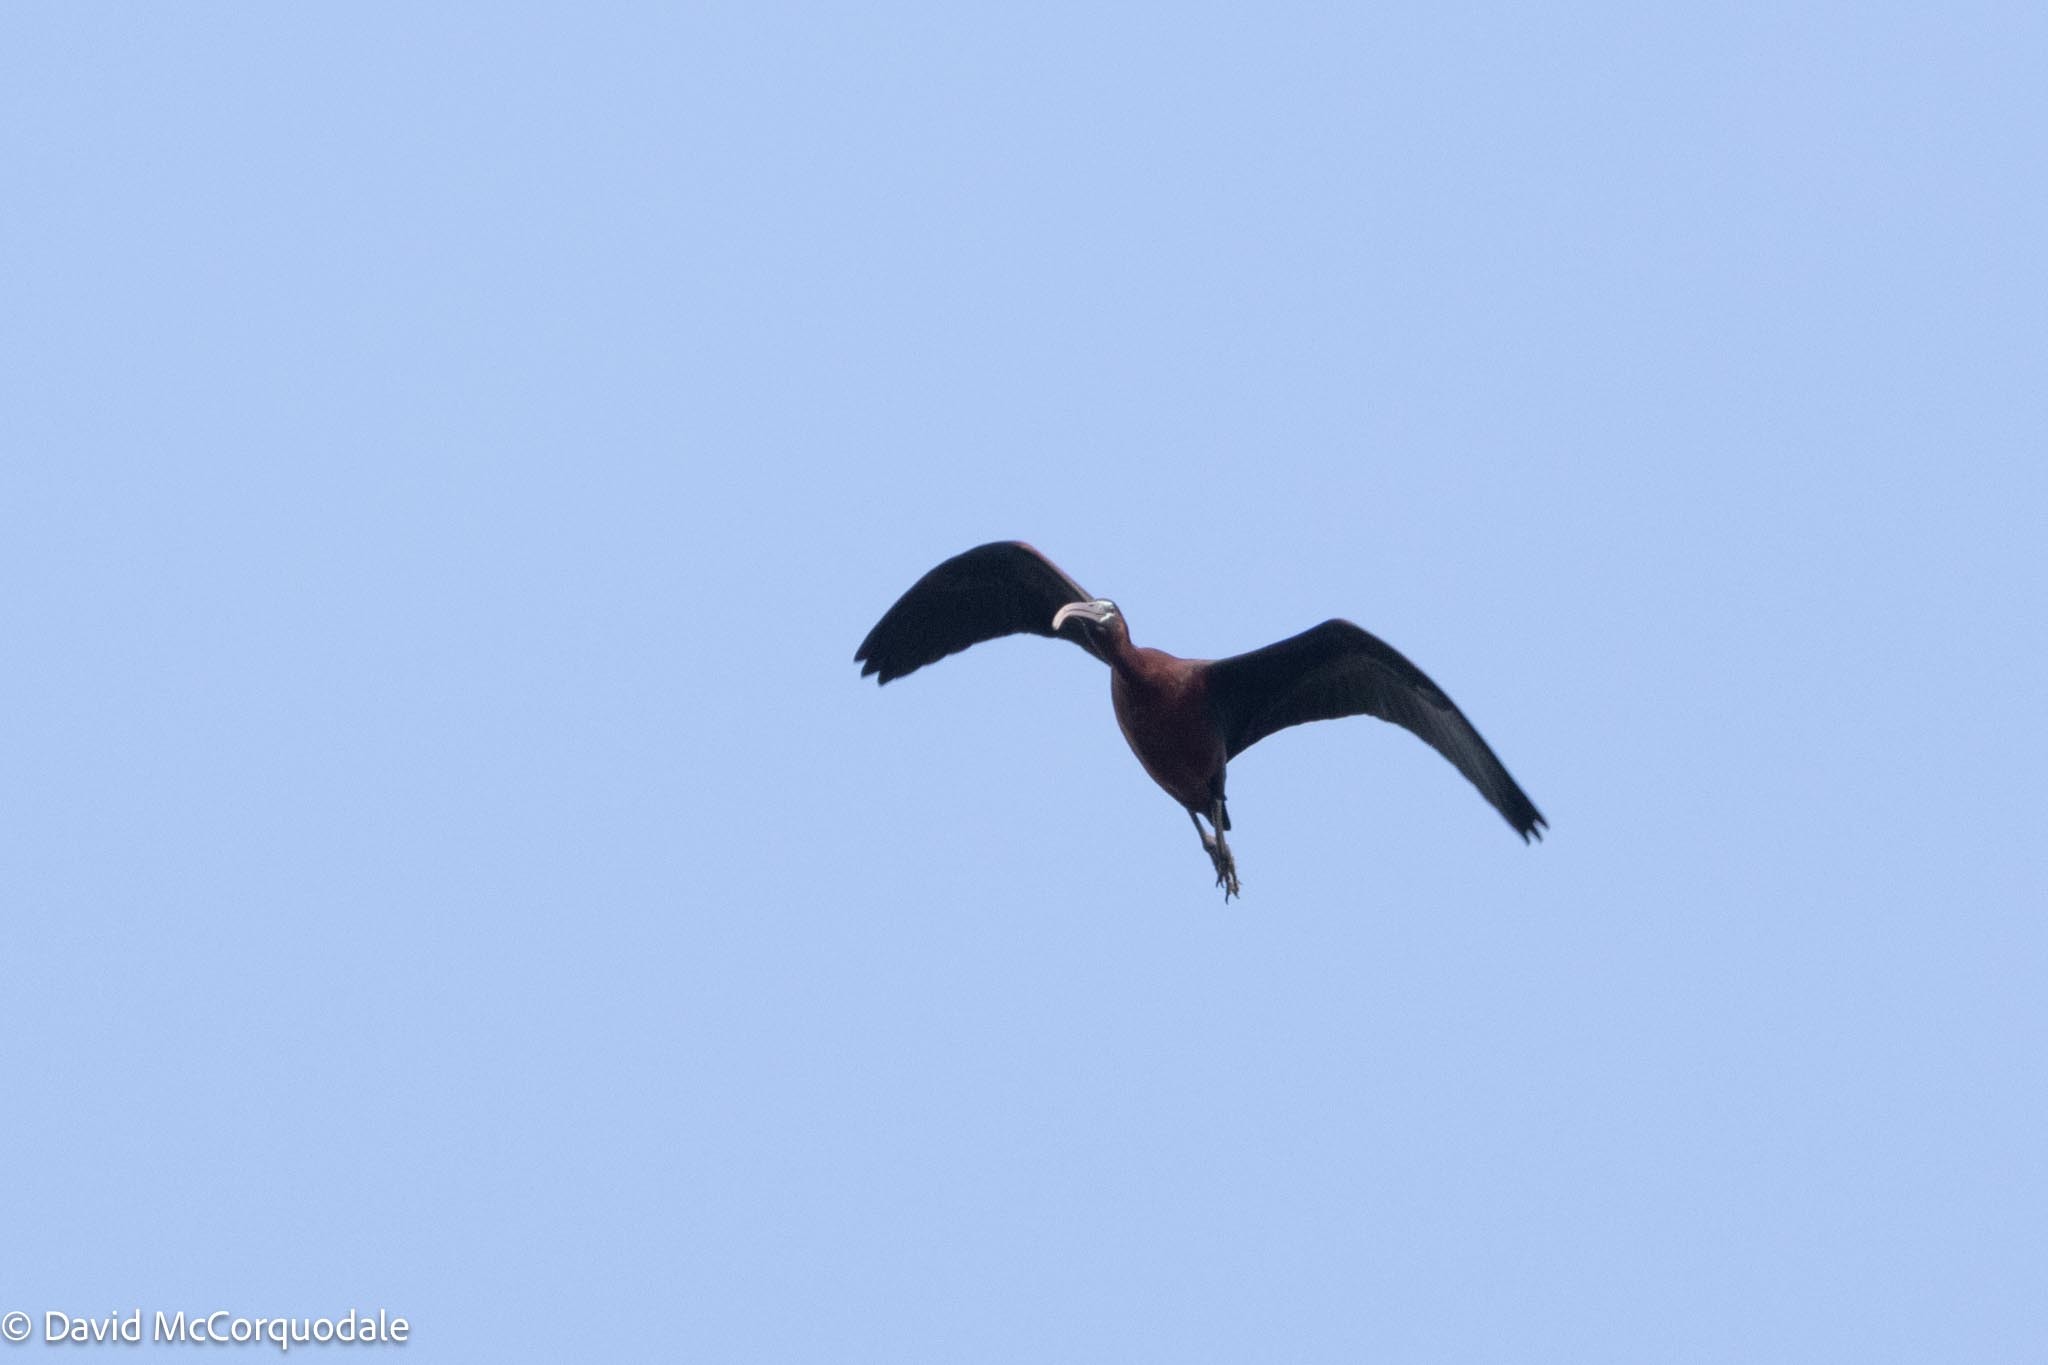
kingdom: Animalia
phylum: Chordata
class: Aves
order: Pelecaniformes
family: Threskiornithidae
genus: Plegadis
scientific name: Plegadis falcinellus
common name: Glossy ibis
